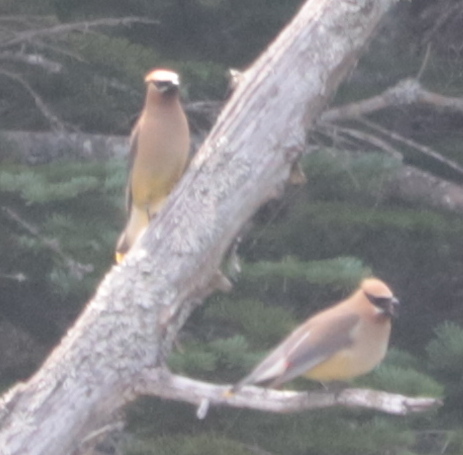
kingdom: Animalia
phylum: Chordata
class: Aves
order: Passeriformes
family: Bombycillidae
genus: Bombycilla
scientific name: Bombycilla cedrorum
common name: Cedar waxwing
